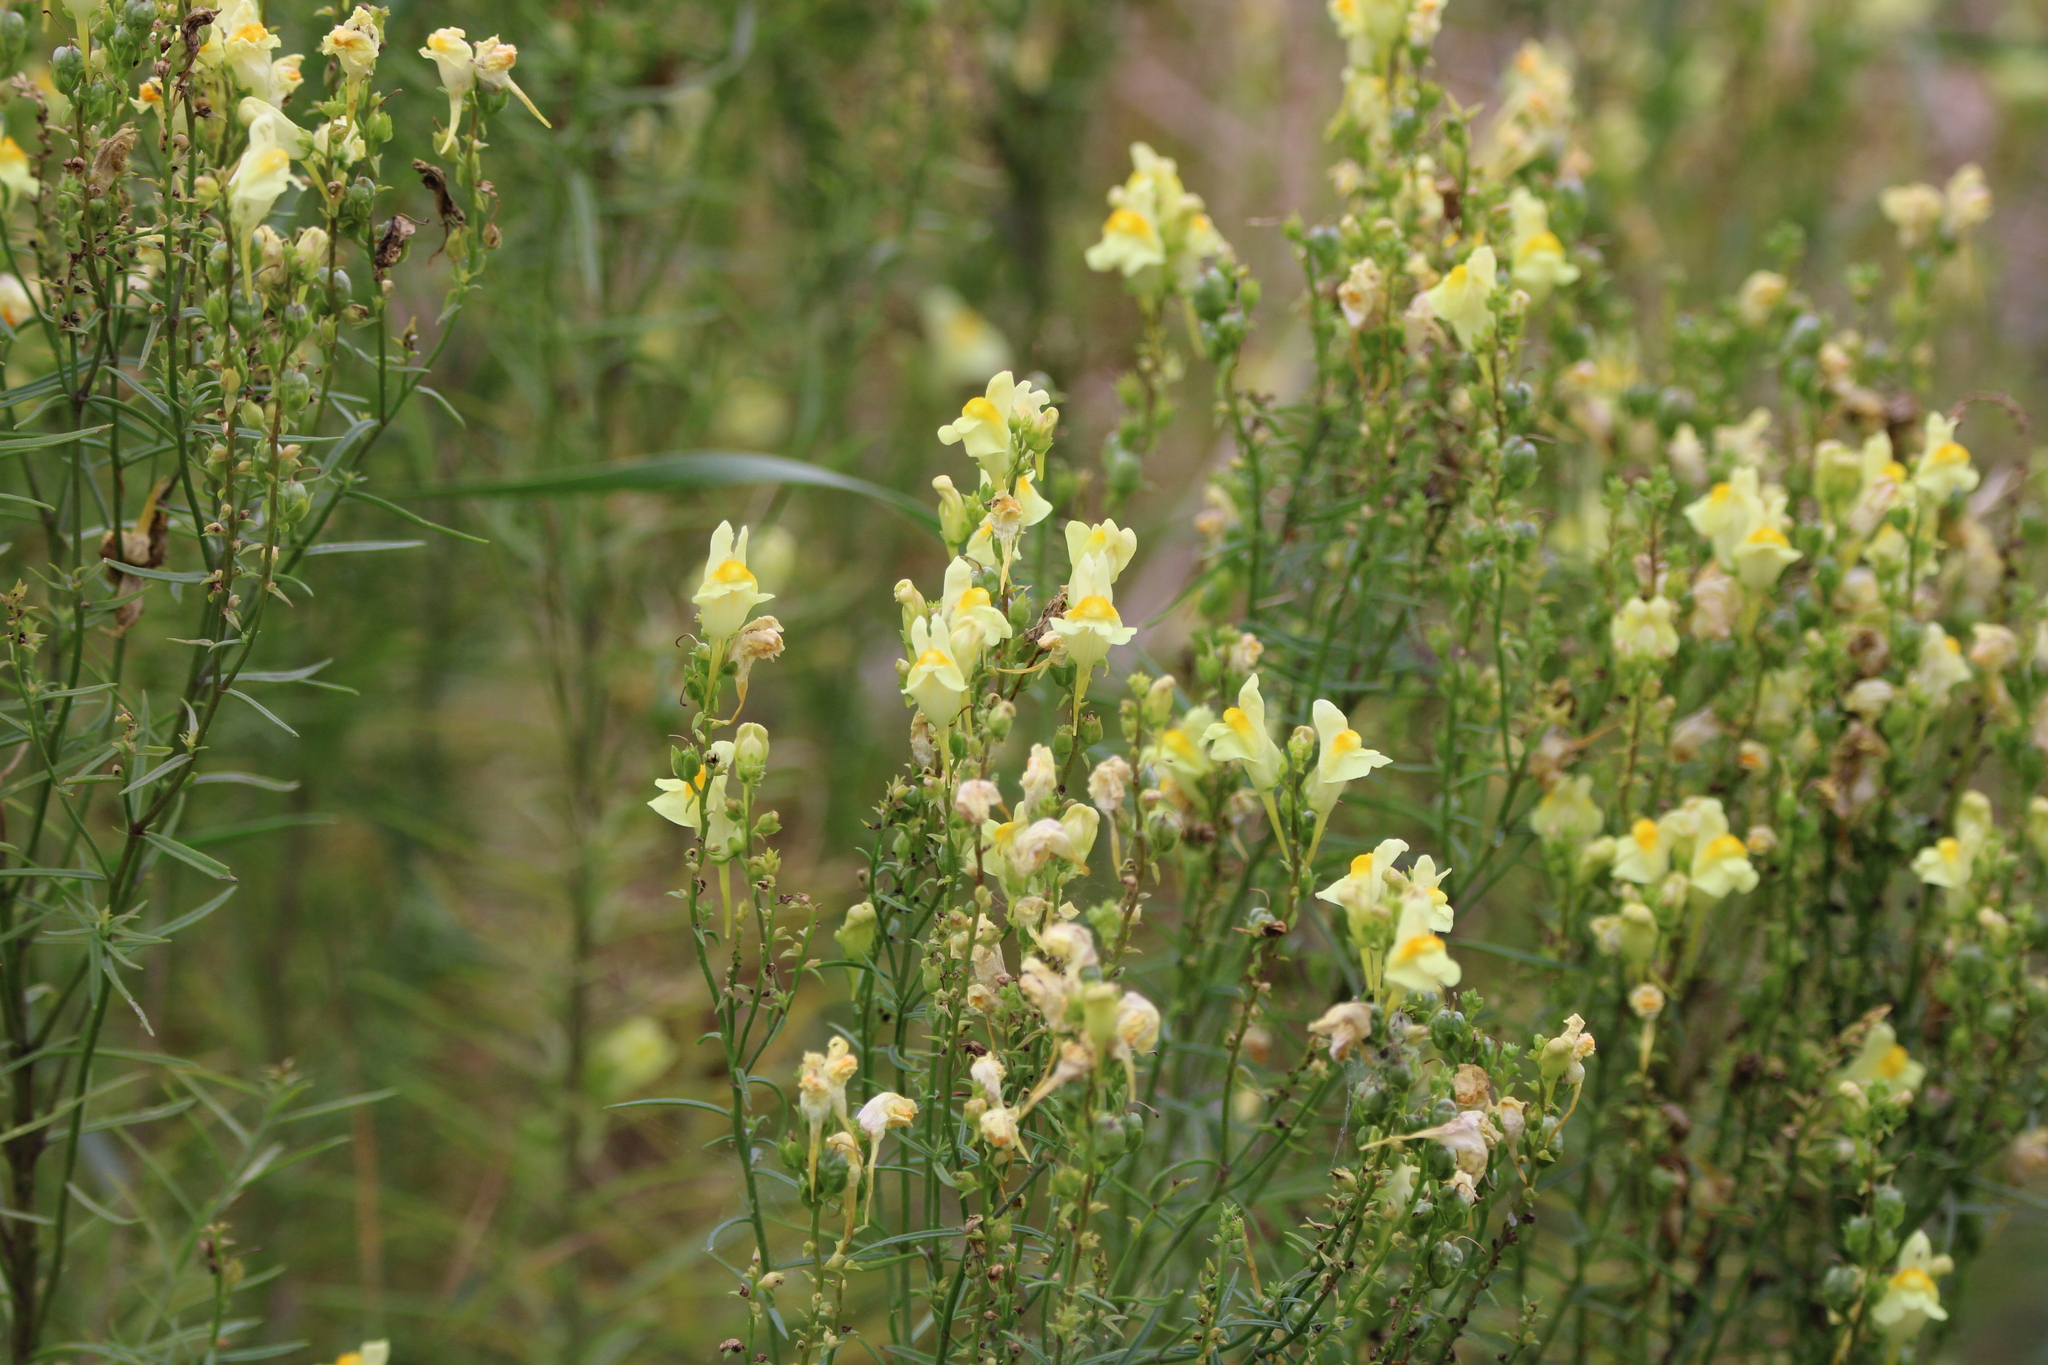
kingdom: Plantae
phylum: Tracheophyta
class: Magnoliopsida
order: Lamiales
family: Plantaginaceae
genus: Linaria
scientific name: Linaria vulgaris
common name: Butter and eggs
